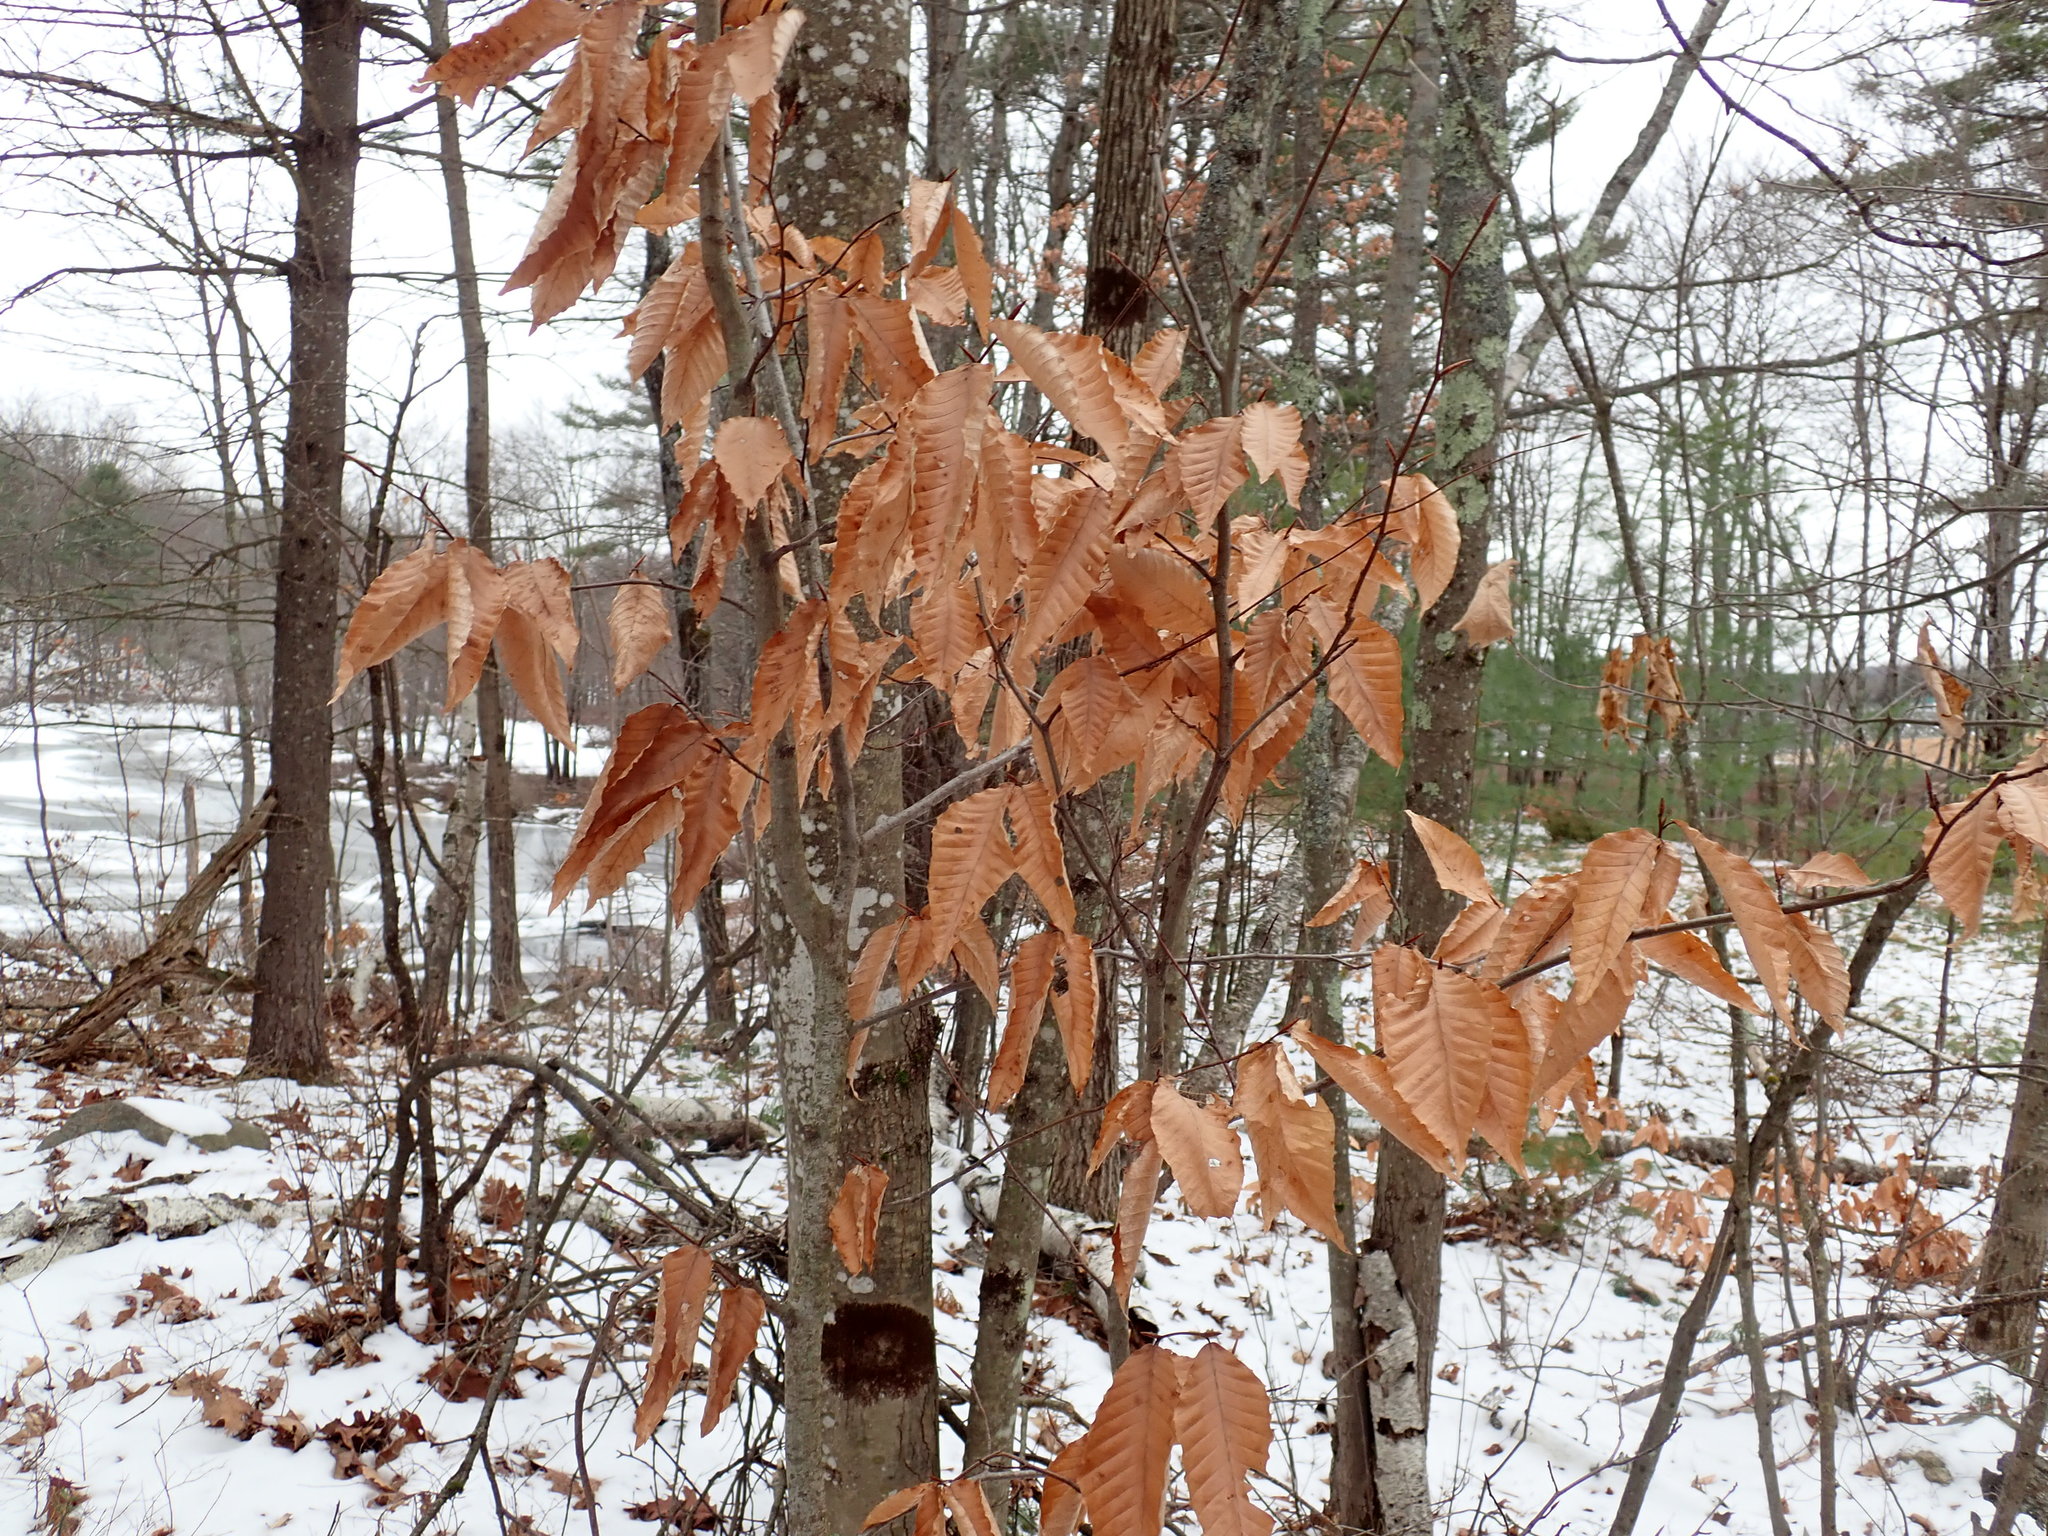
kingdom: Plantae
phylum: Tracheophyta
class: Magnoliopsida
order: Fagales
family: Fagaceae
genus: Fagus
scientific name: Fagus grandifolia
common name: American beech
